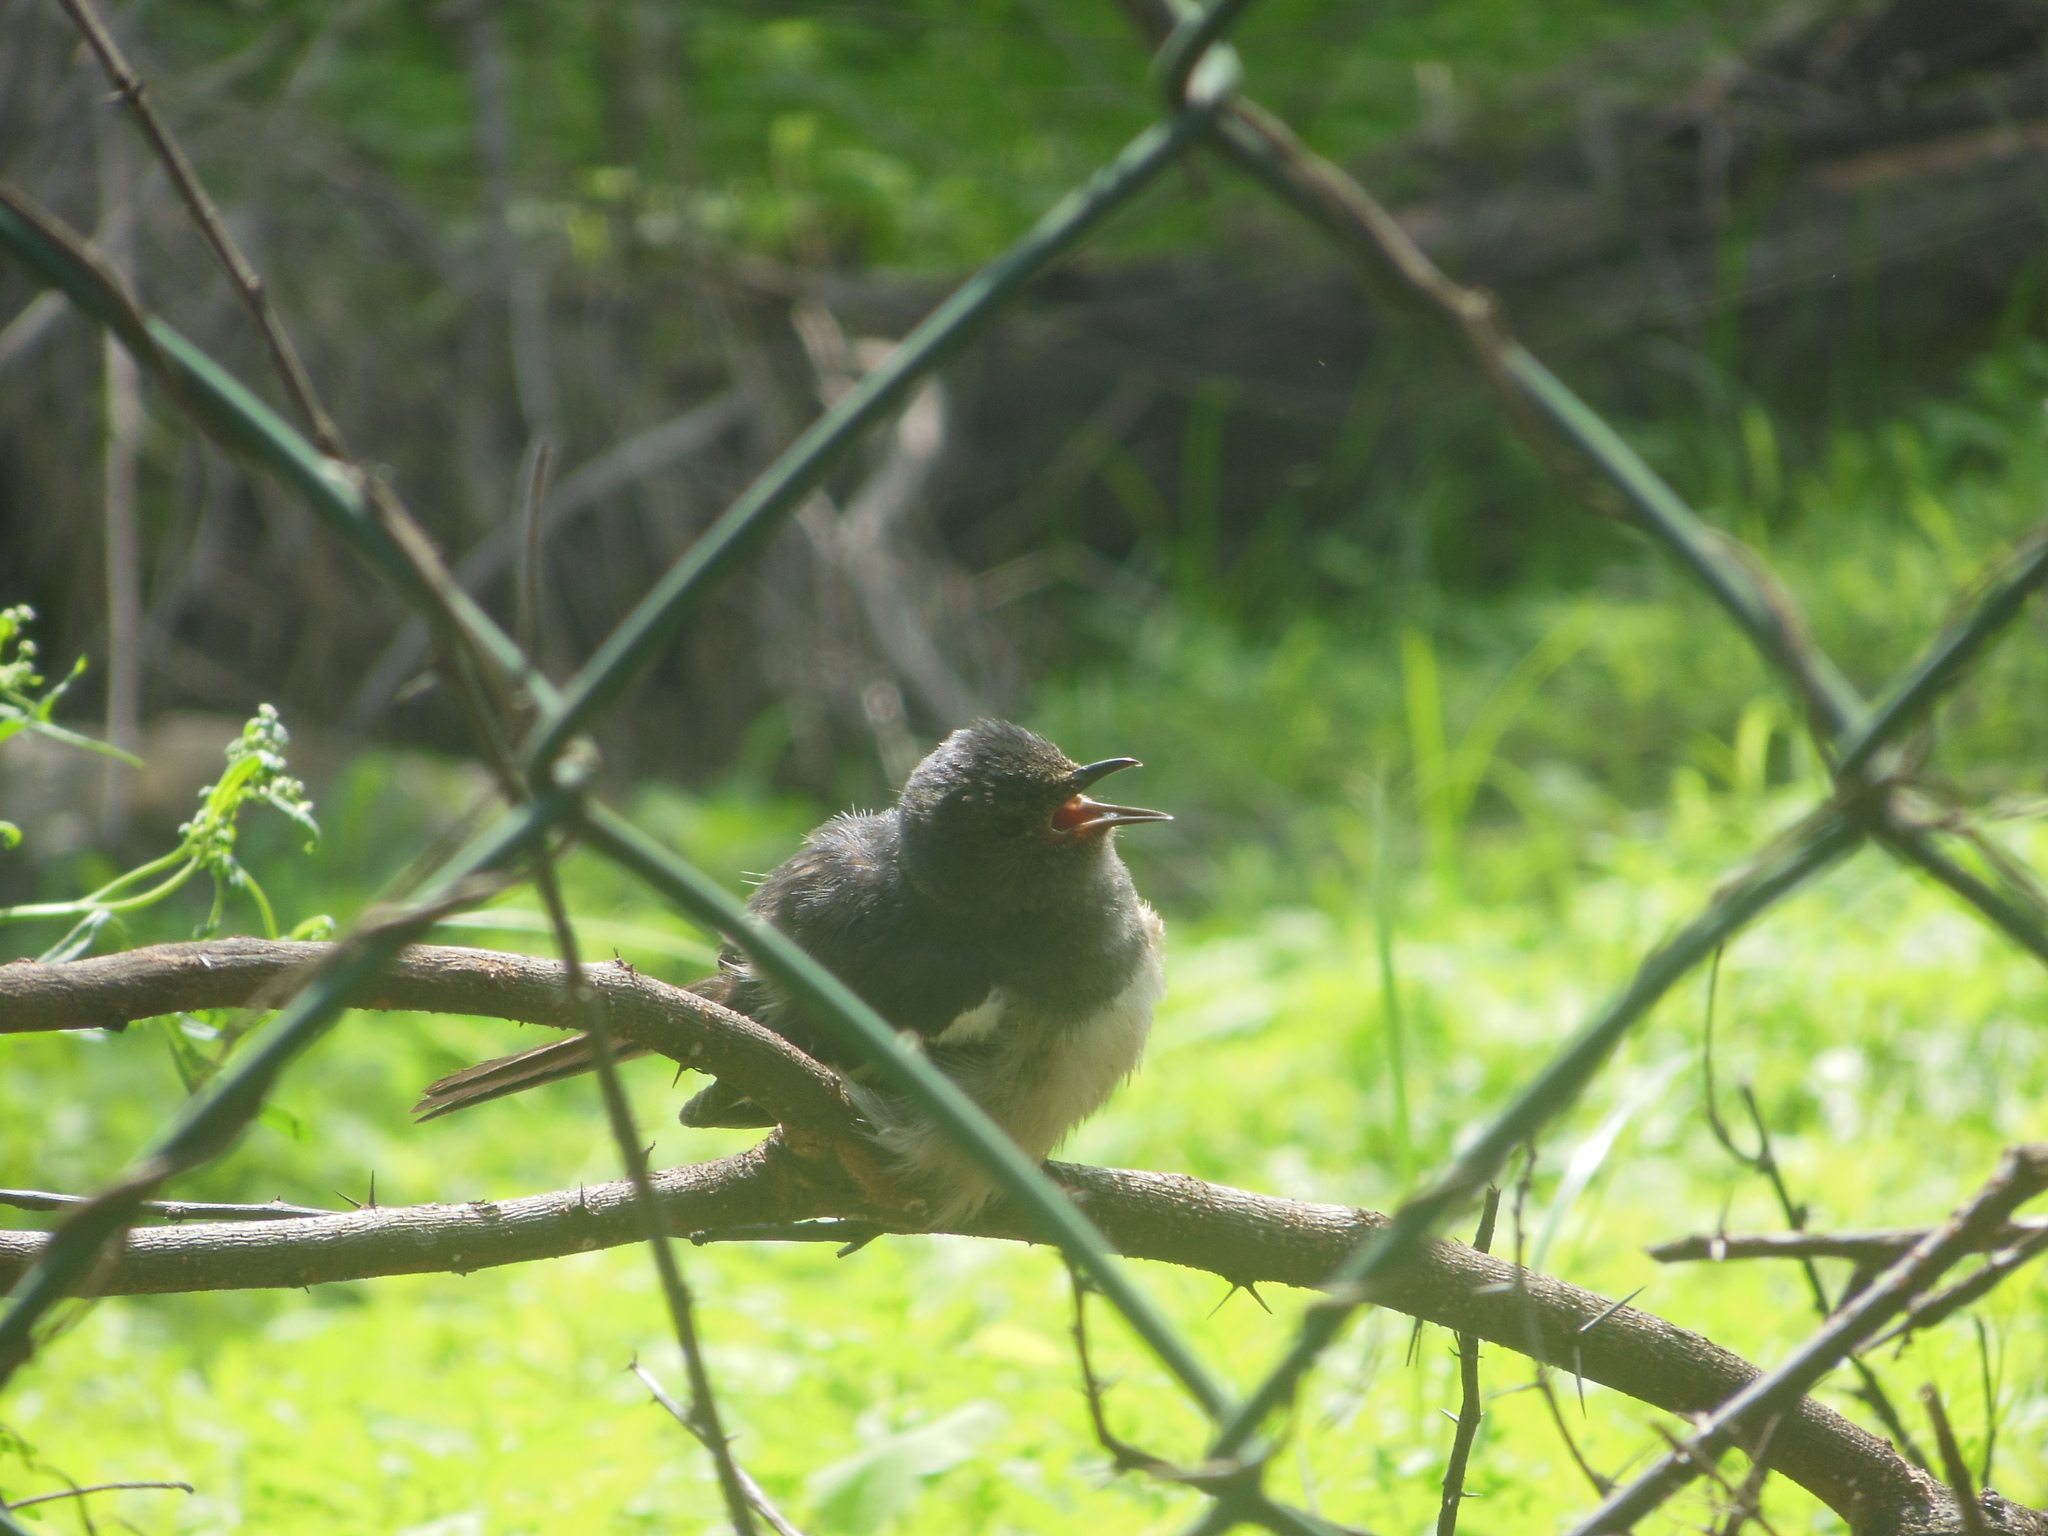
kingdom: Animalia
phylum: Chordata
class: Aves
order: Passeriformes
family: Muscicapidae
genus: Copsychus
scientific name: Copsychus saularis
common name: Oriental magpie-robin
